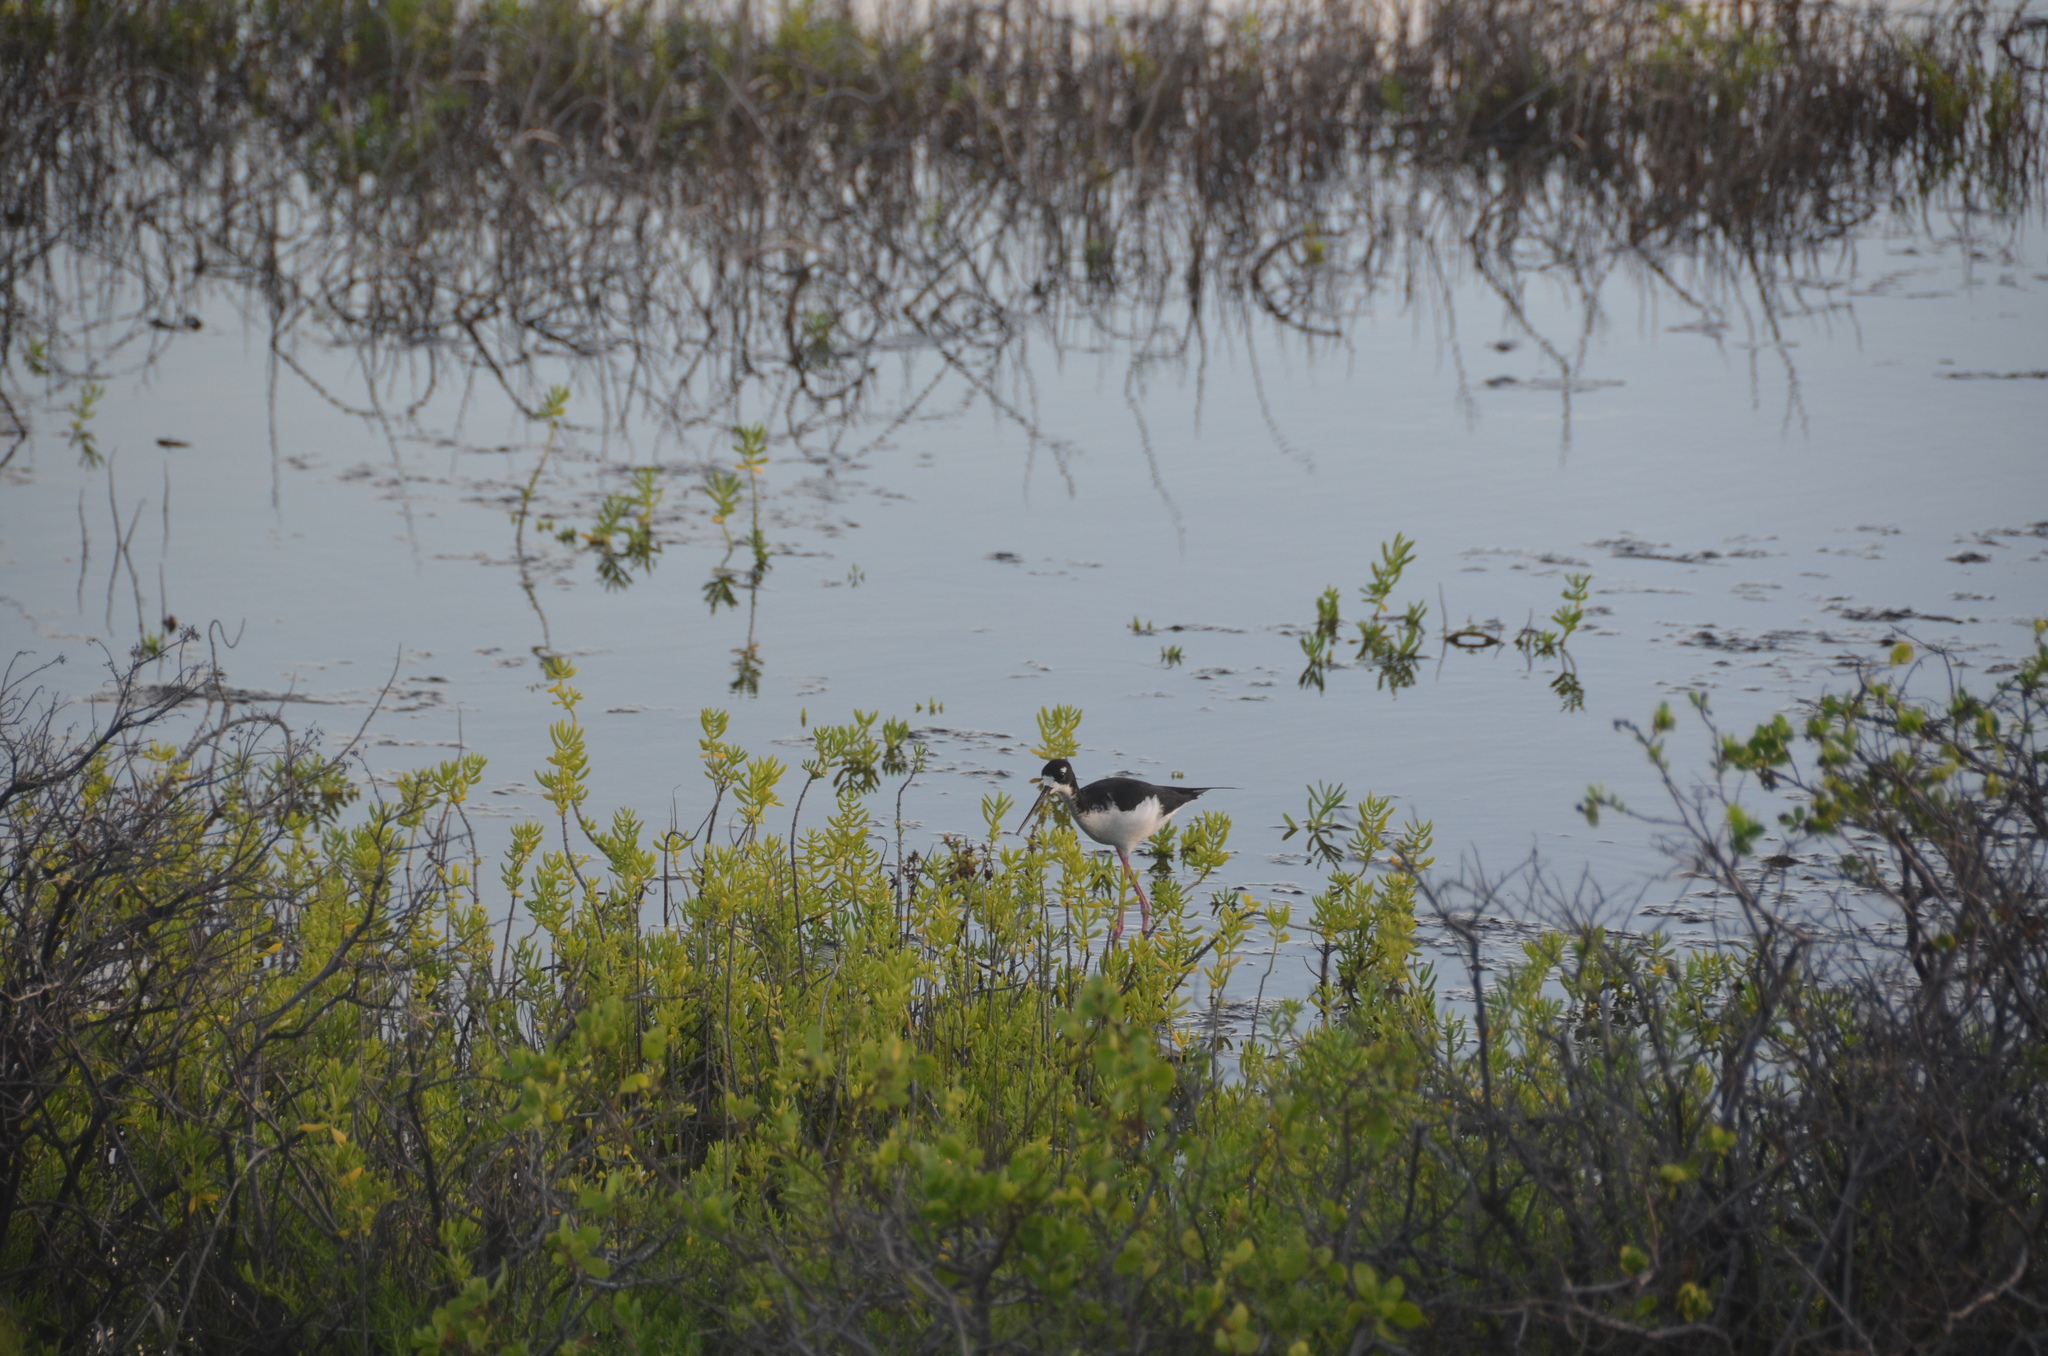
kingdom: Animalia
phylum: Chordata
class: Aves
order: Charadriiformes
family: Recurvirostridae
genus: Himantopus
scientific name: Himantopus mexicanus
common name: Black-necked stilt
